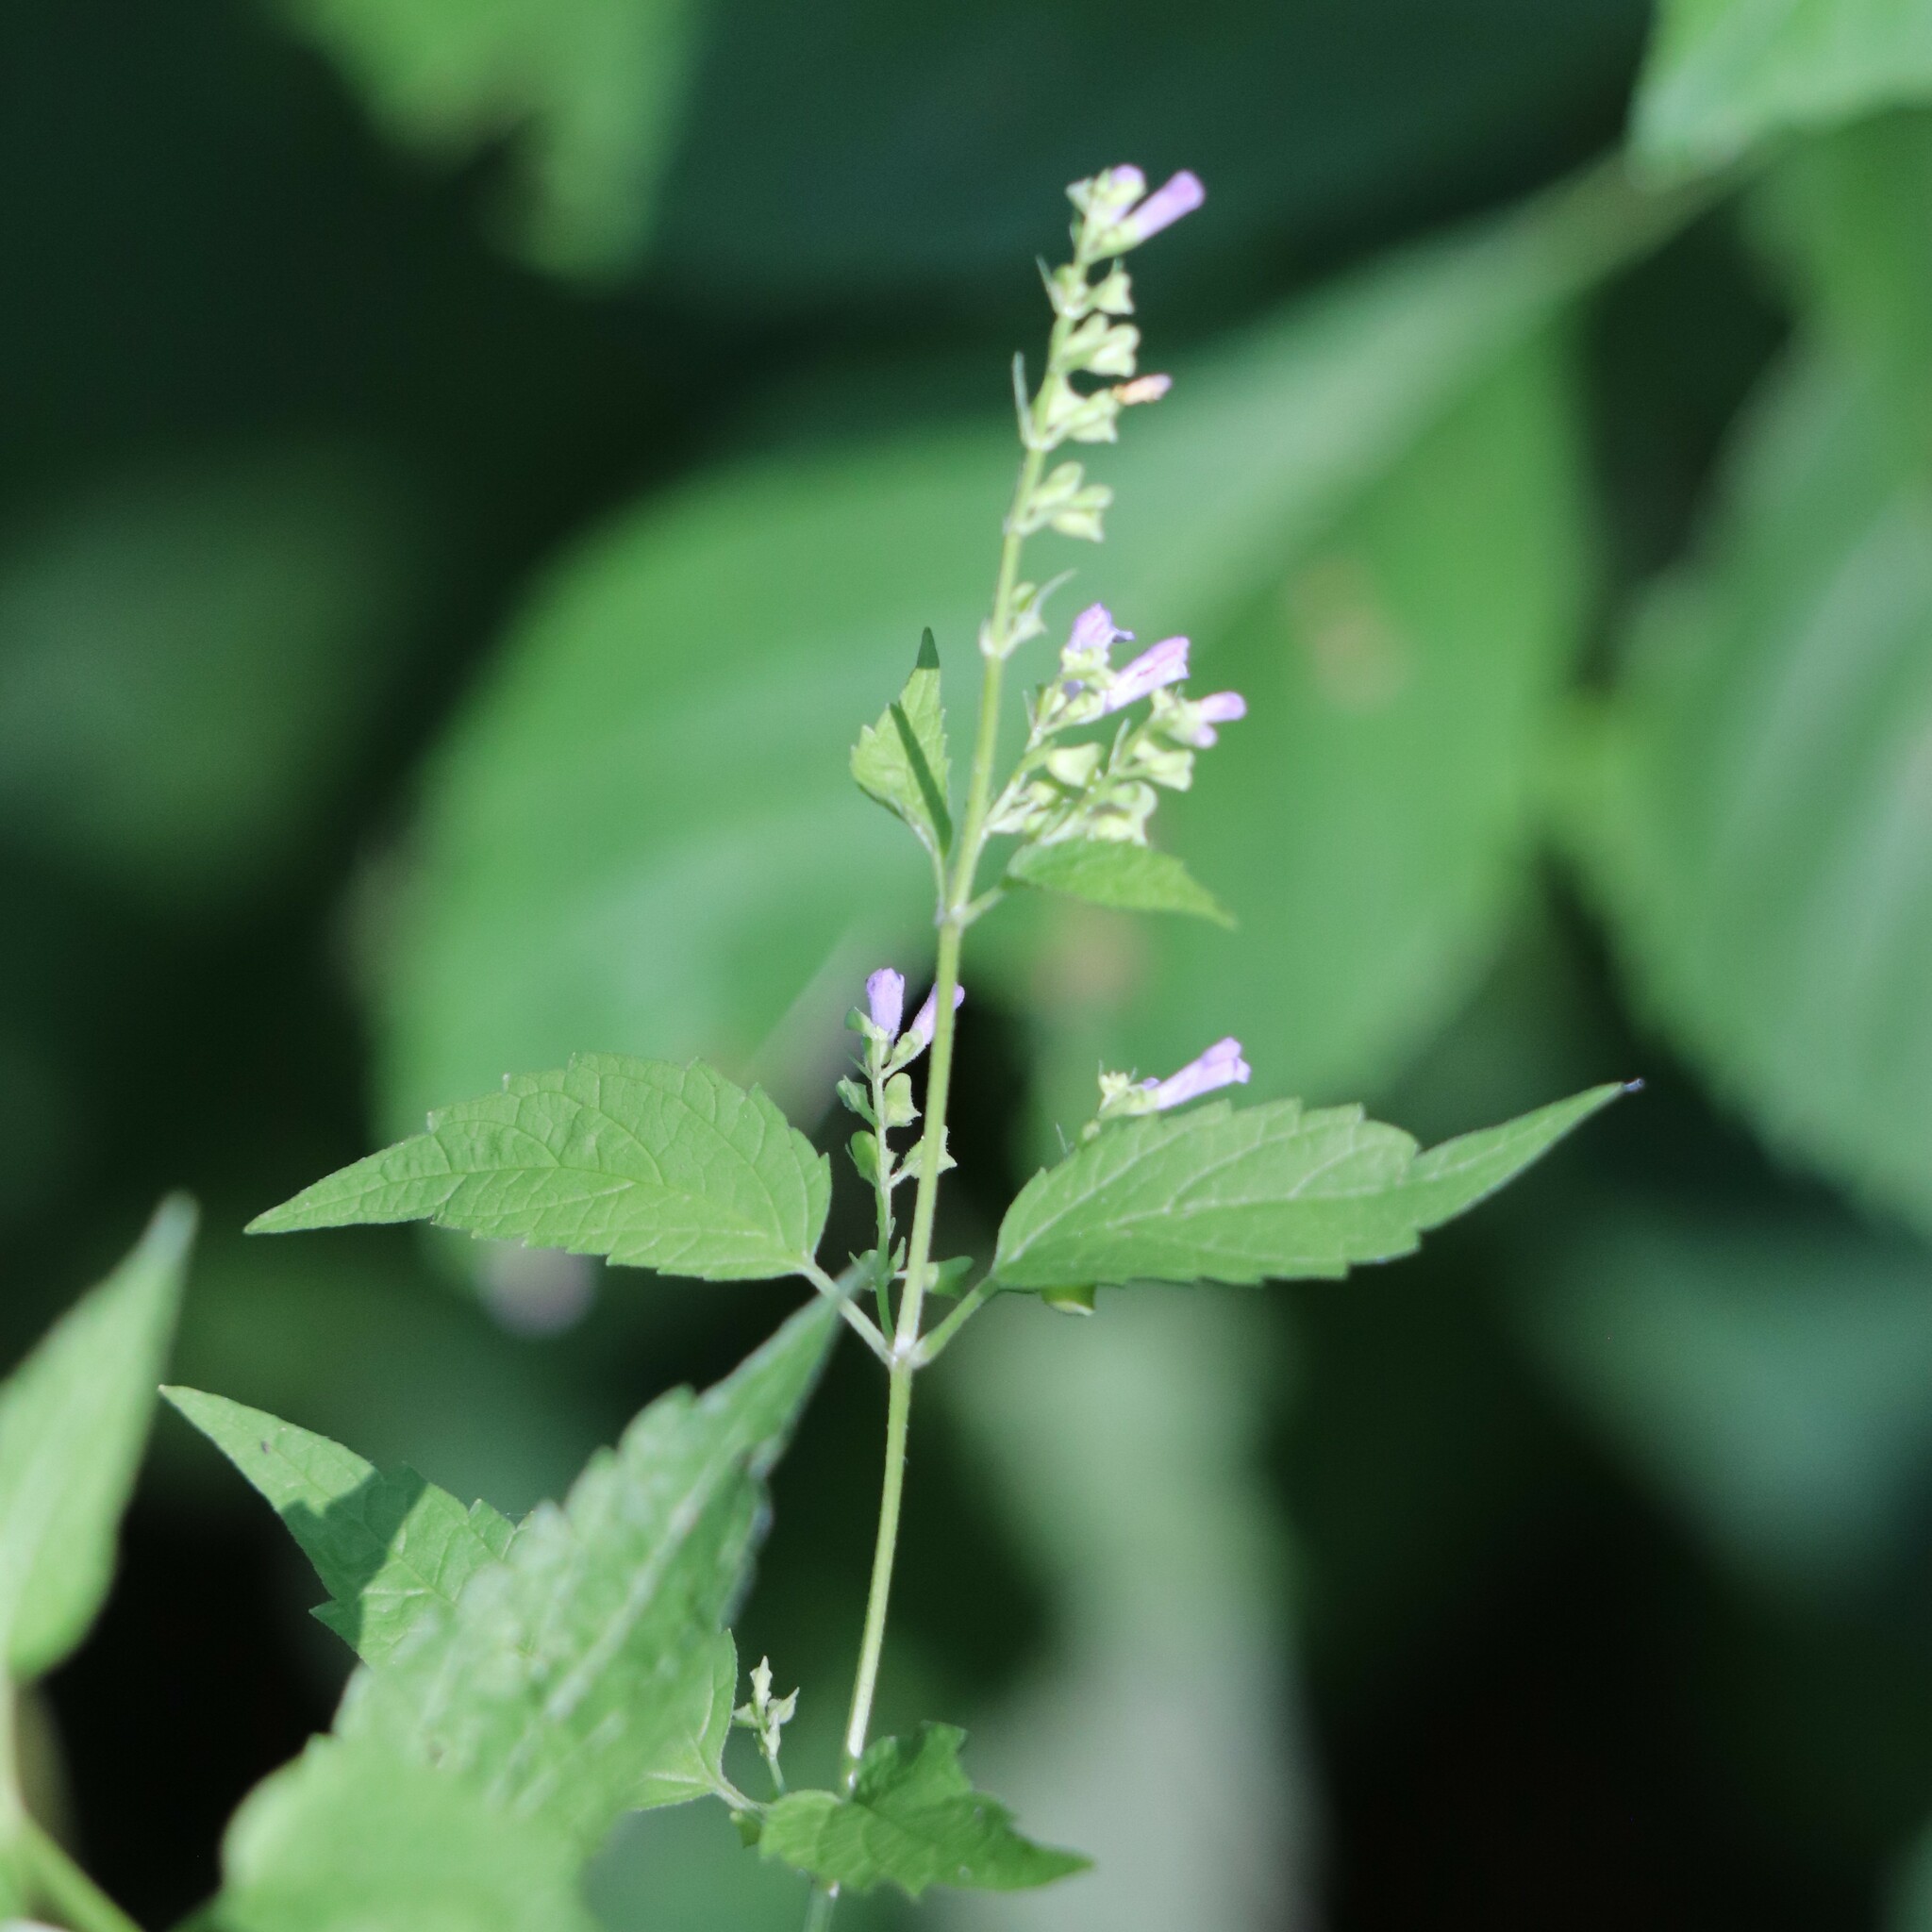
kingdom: Plantae
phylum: Tracheophyta
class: Magnoliopsida
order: Lamiales
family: Lamiaceae
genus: Scutellaria
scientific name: Scutellaria lateriflora
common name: Blue skullcap
